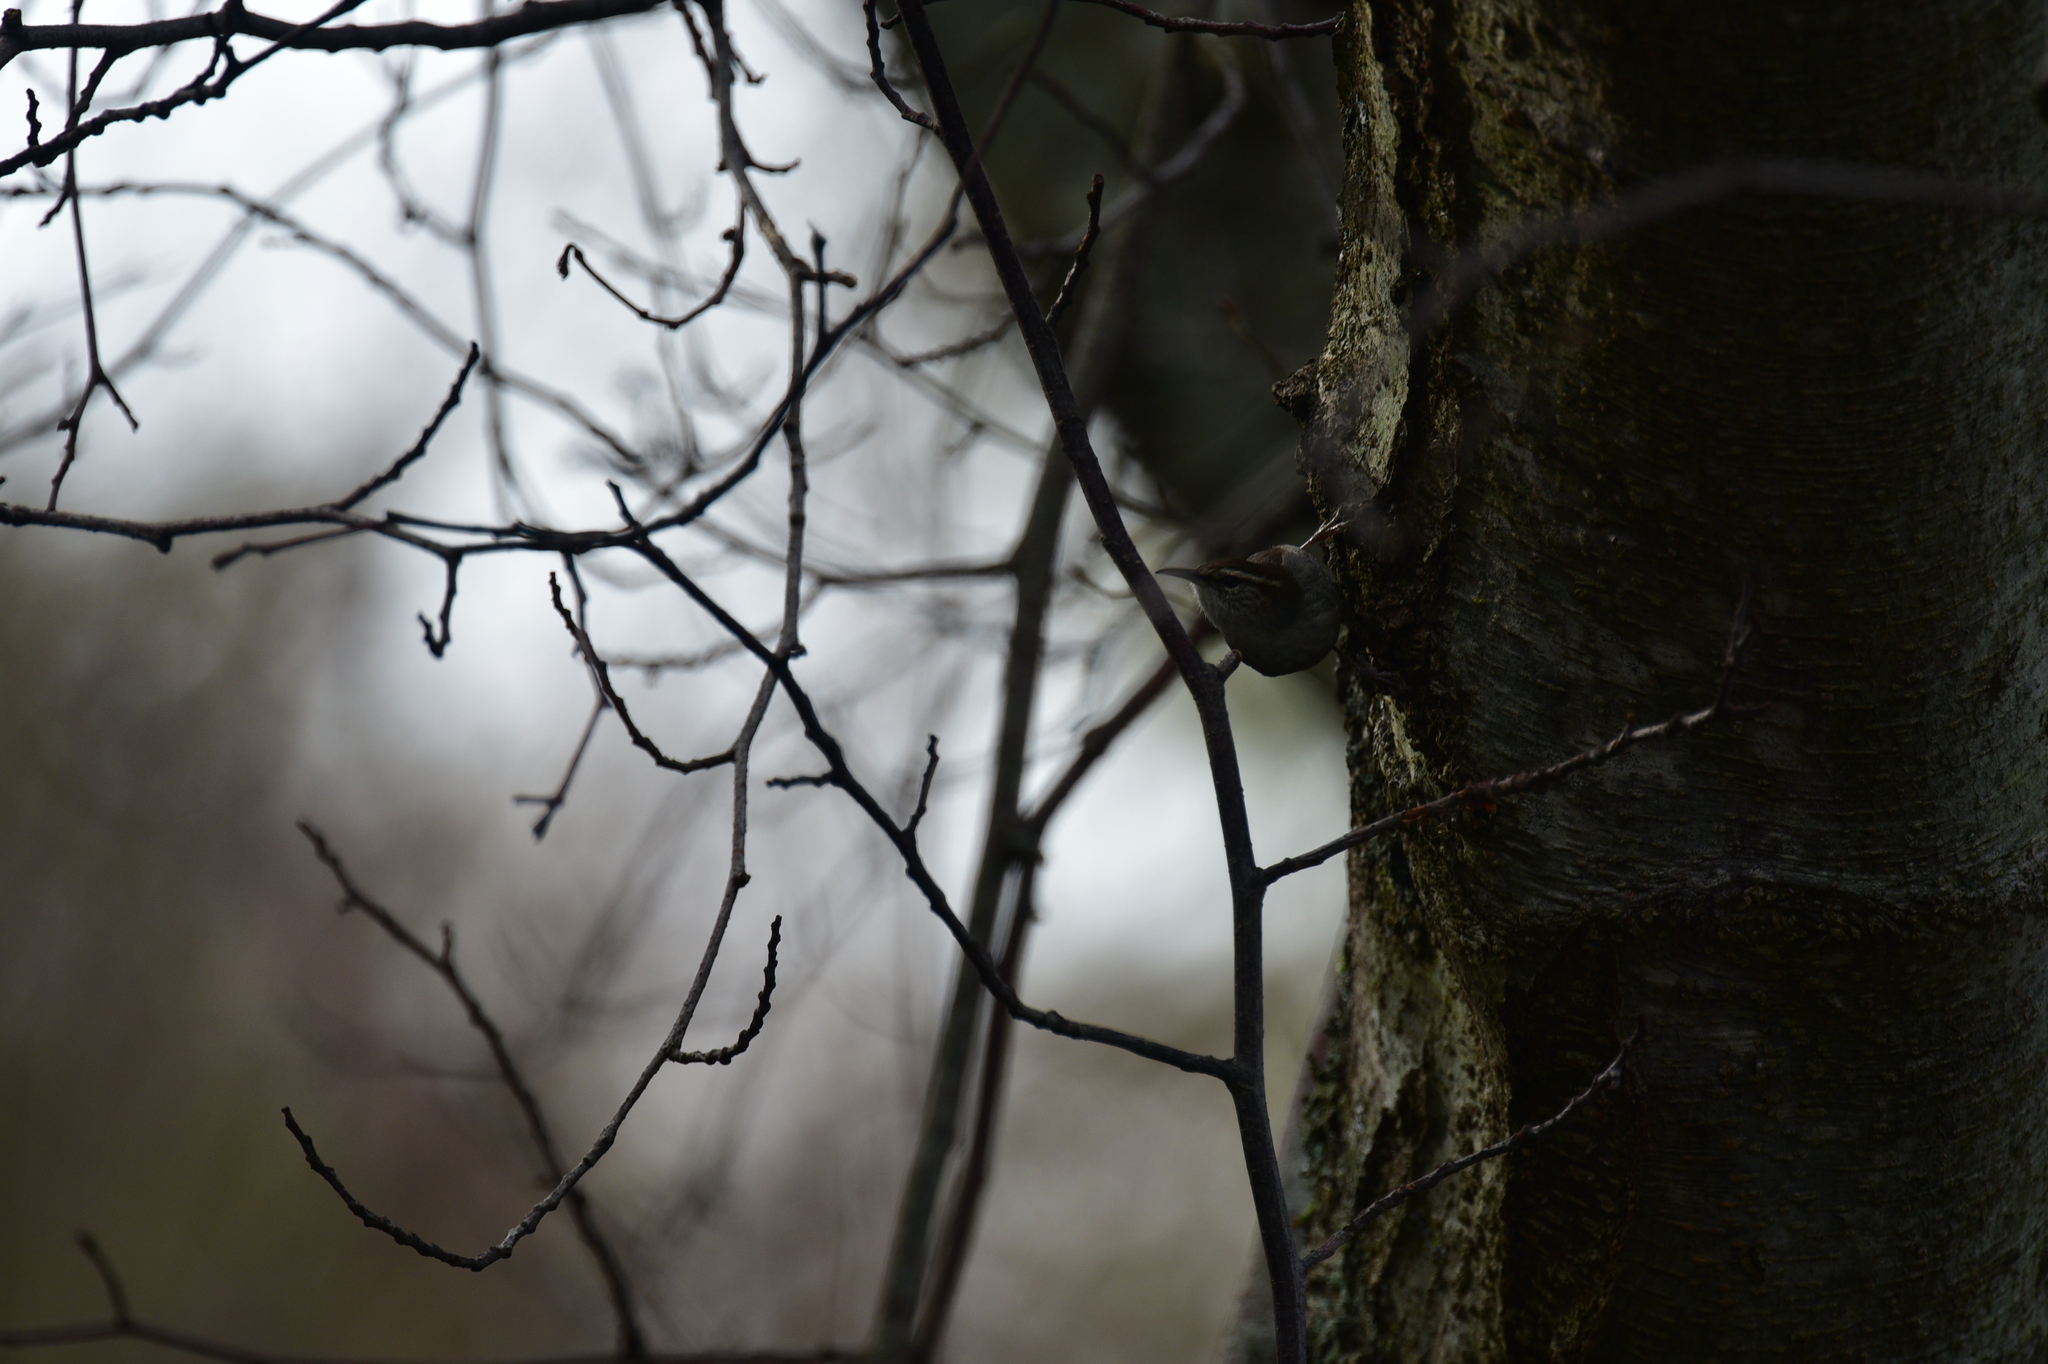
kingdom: Animalia
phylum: Chordata
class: Aves
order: Passeriformes
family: Troglodytidae
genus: Thryomanes
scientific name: Thryomanes bewickii
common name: Bewick's wren
